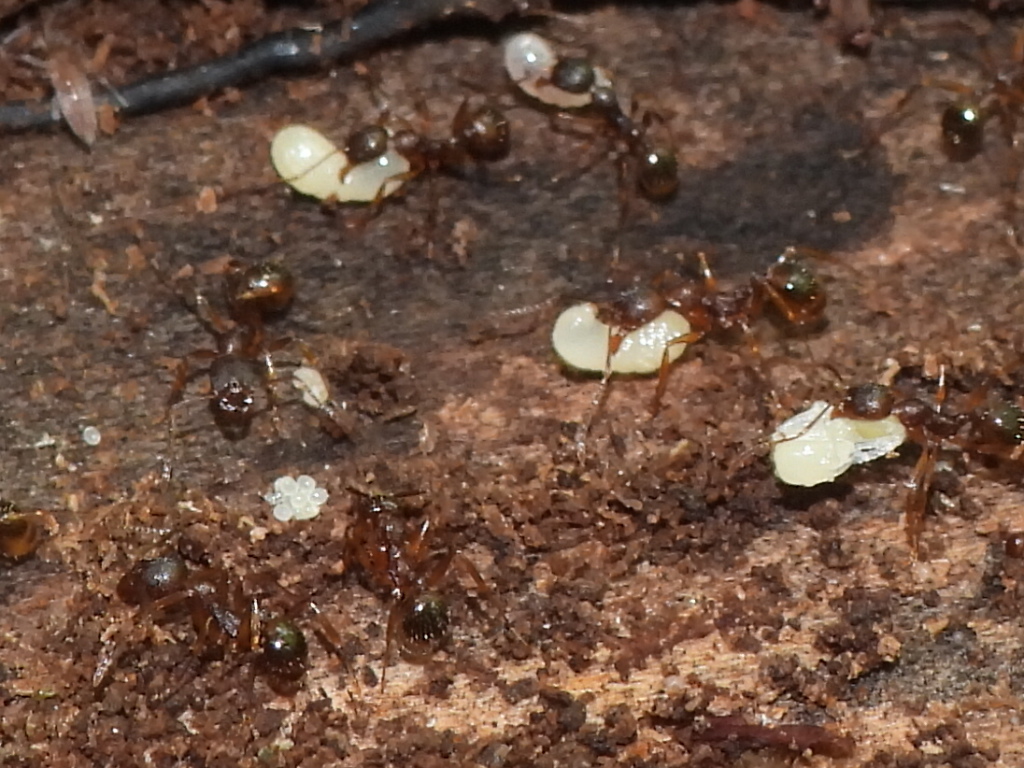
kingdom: Animalia
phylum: Arthropoda
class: Insecta
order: Hymenoptera
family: Formicidae
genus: Aphaenogaster
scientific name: Aphaenogaster rudis
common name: Winnow ant
